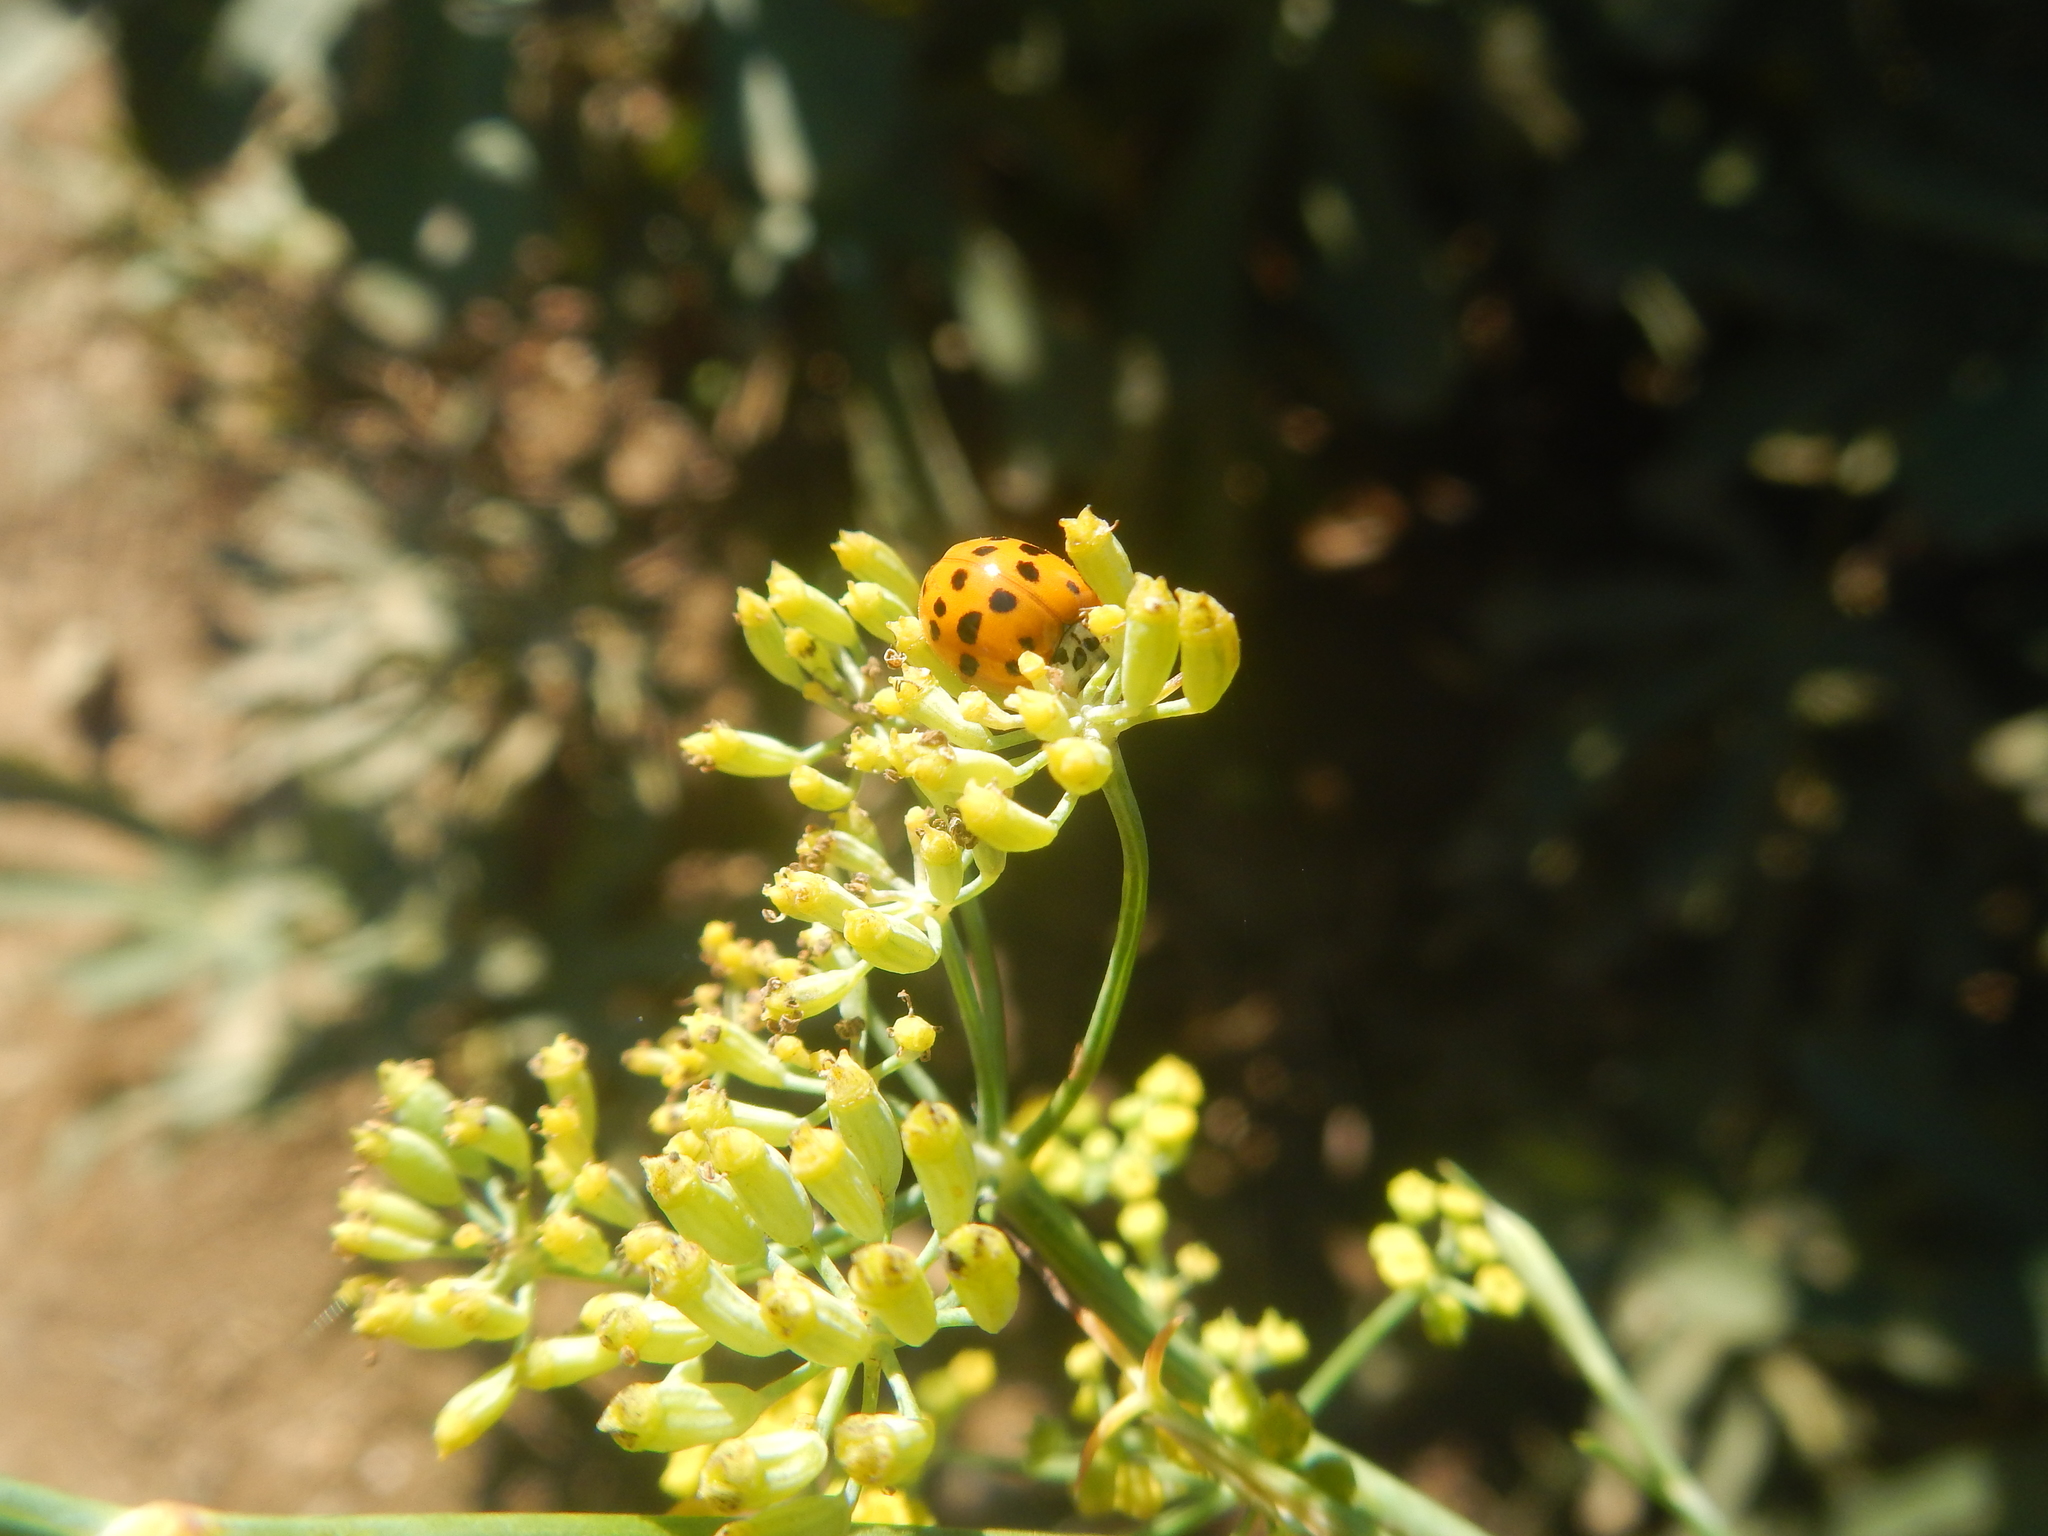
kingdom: Animalia
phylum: Arthropoda
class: Insecta
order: Coleoptera
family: Coccinellidae
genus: Harmonia
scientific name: Harmonia axyridis
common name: Harlequin ladybird
